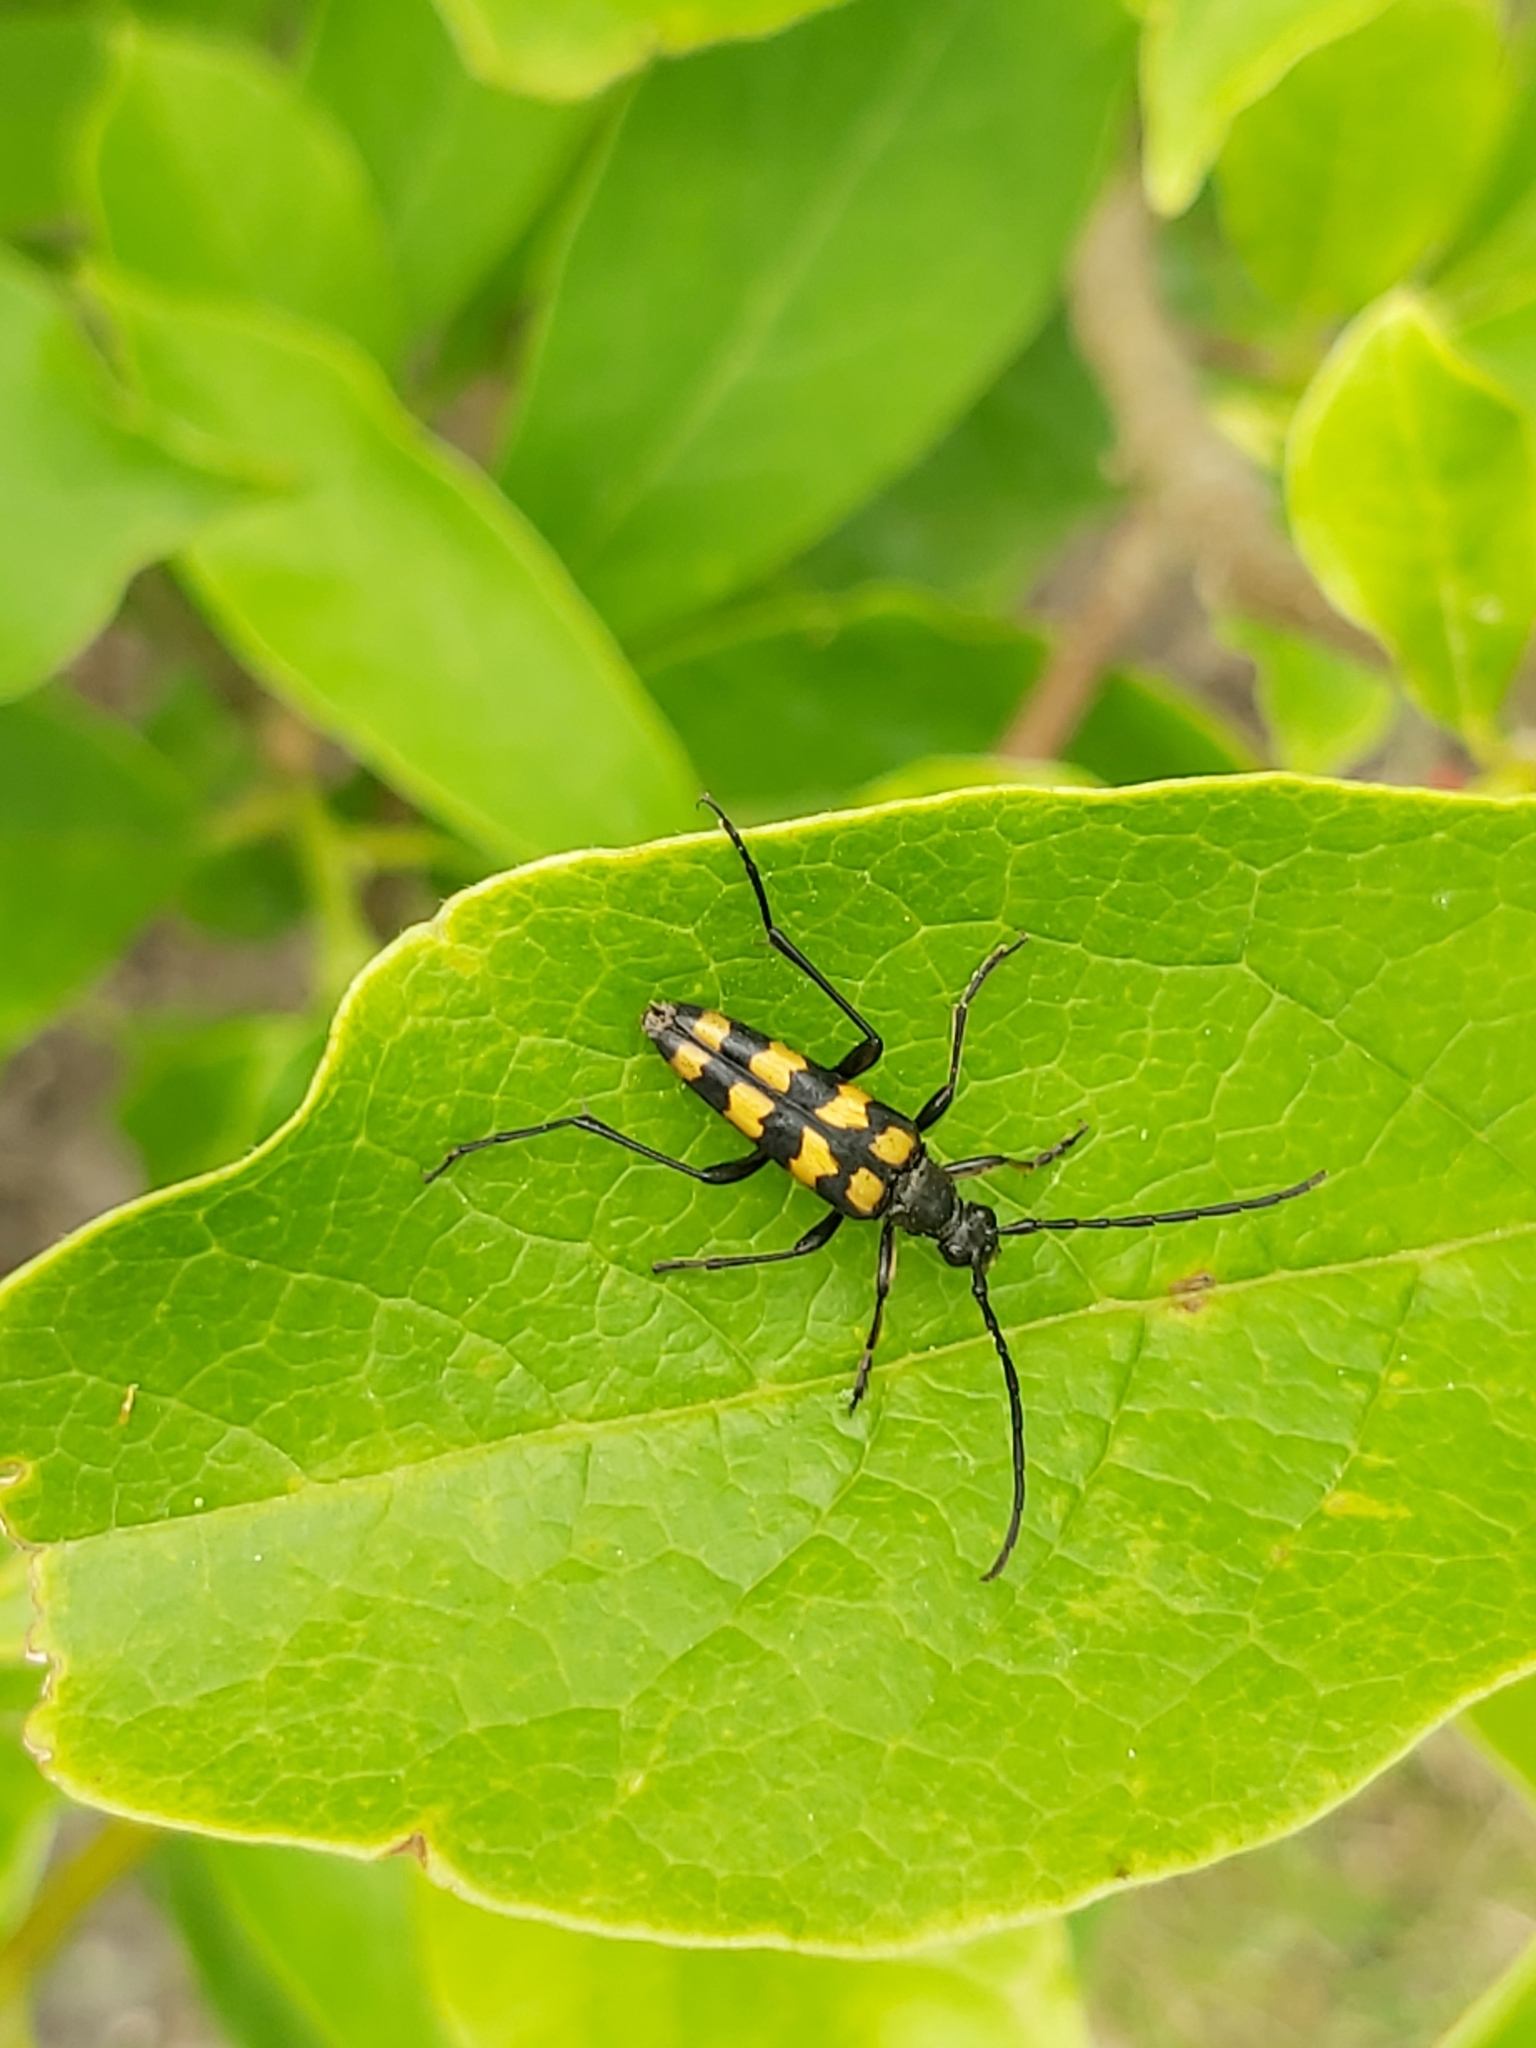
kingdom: Animalia
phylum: Arthropoda
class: Insecta
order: Coleoptera
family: Cerambycidae
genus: Leptura
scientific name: Leptura quadrifasciata
